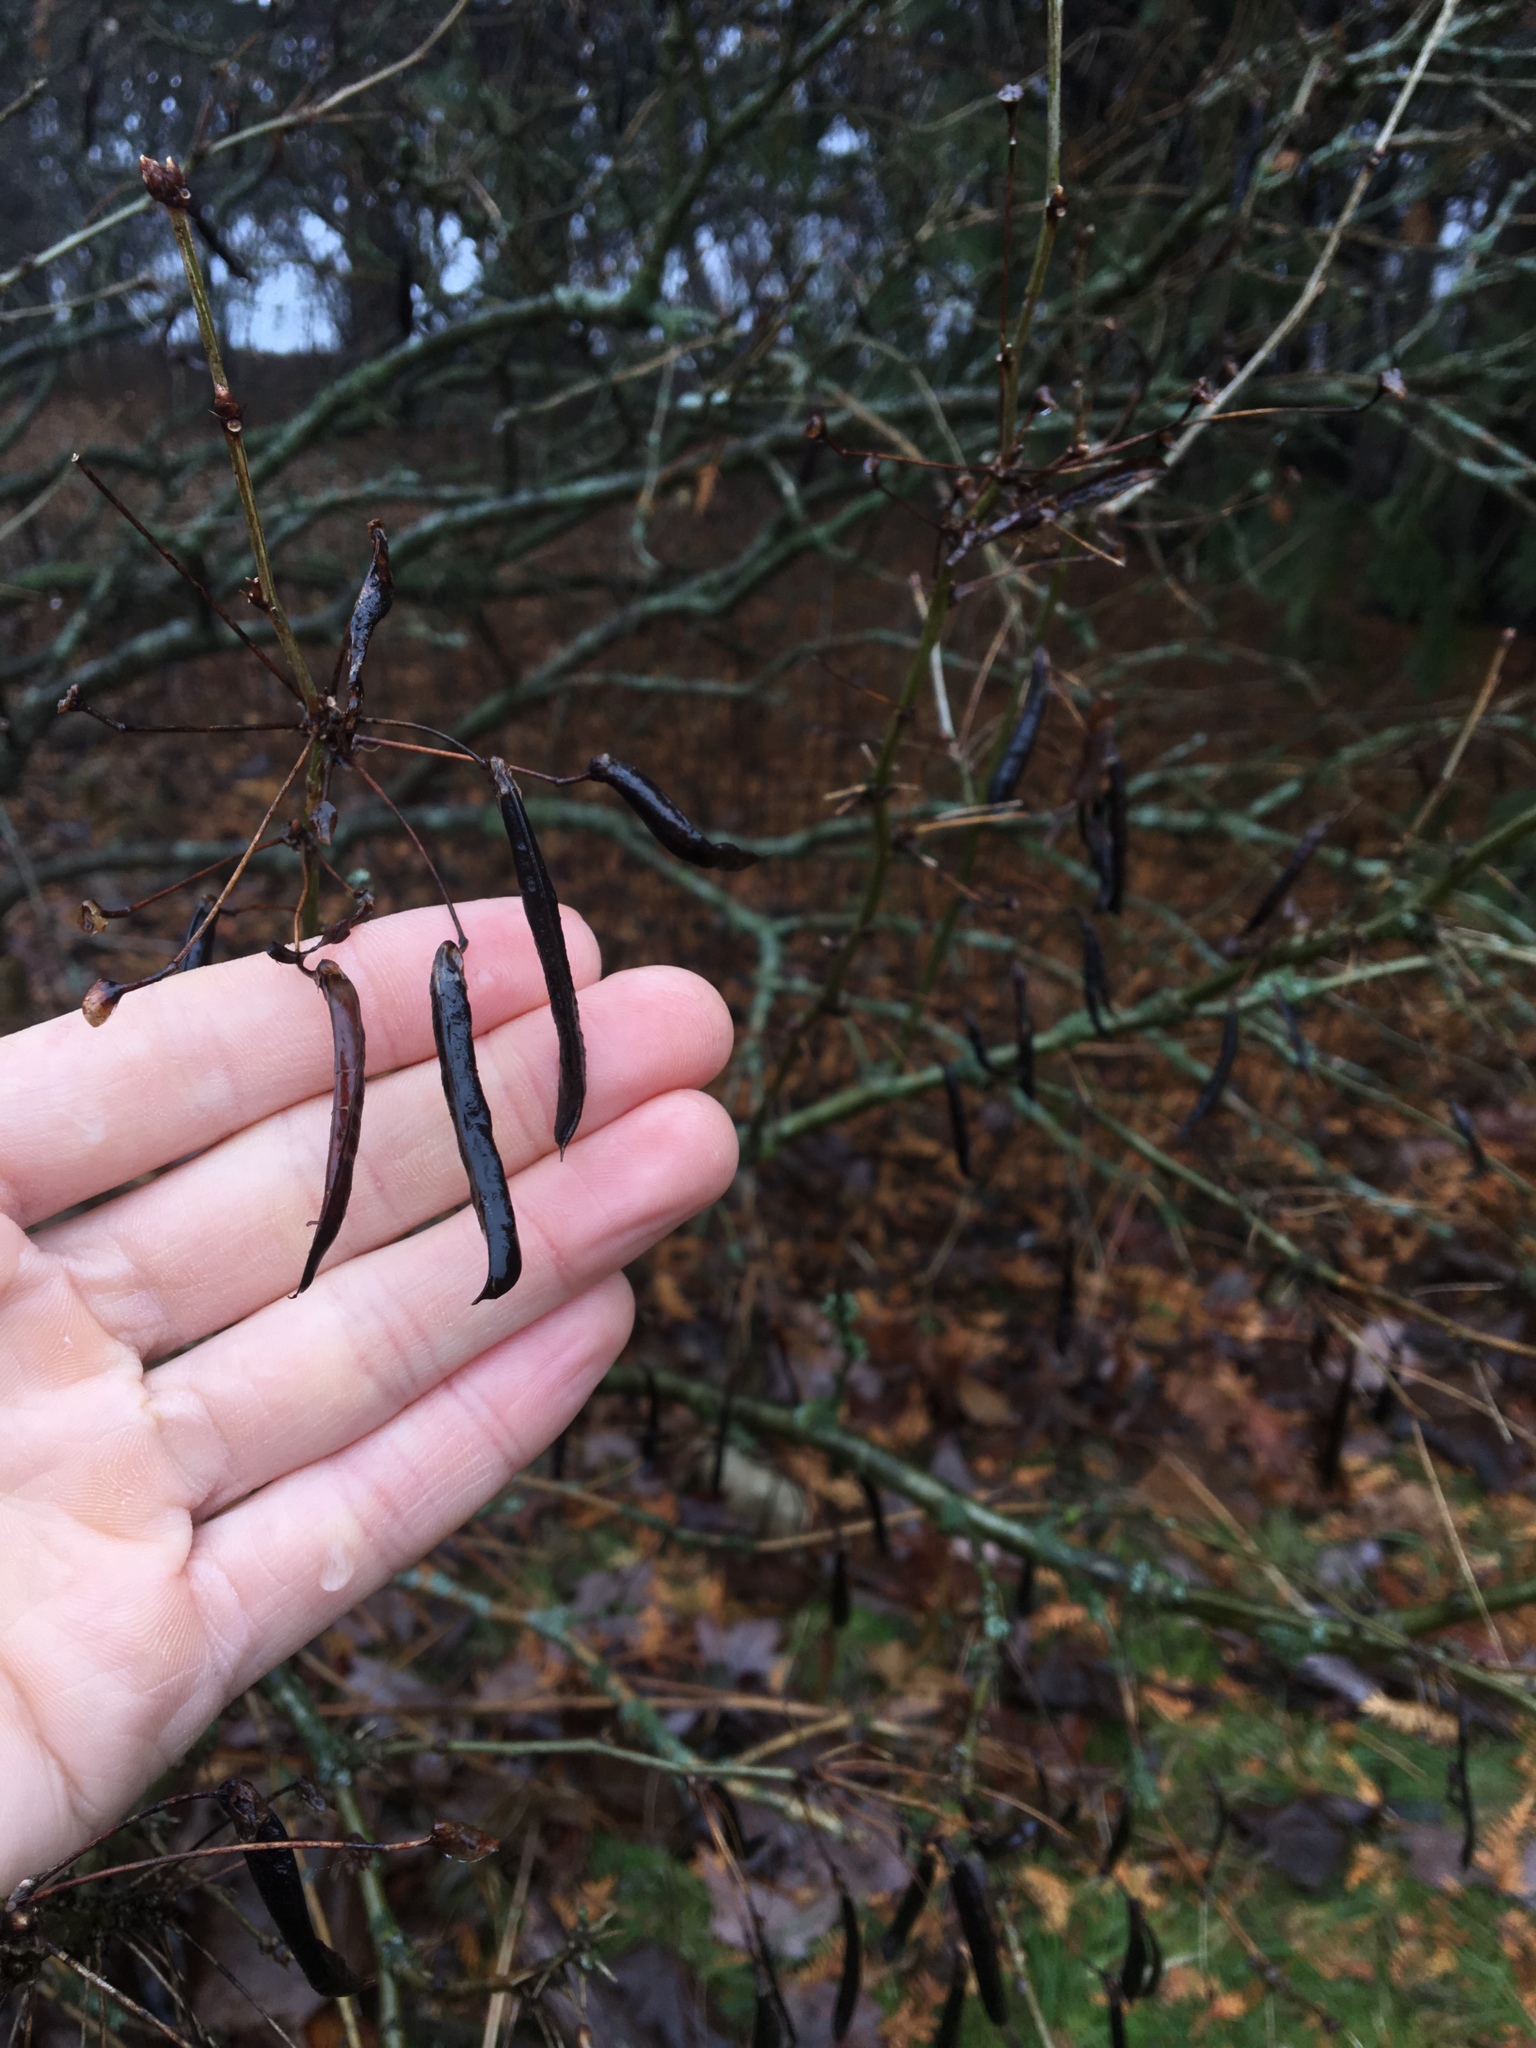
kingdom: Plantae
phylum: Tracheophyta
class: Magnoliopsida
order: Fabales
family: Fabaceae
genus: Caragana
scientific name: Caragana arborescens
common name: Siberian peashrub
